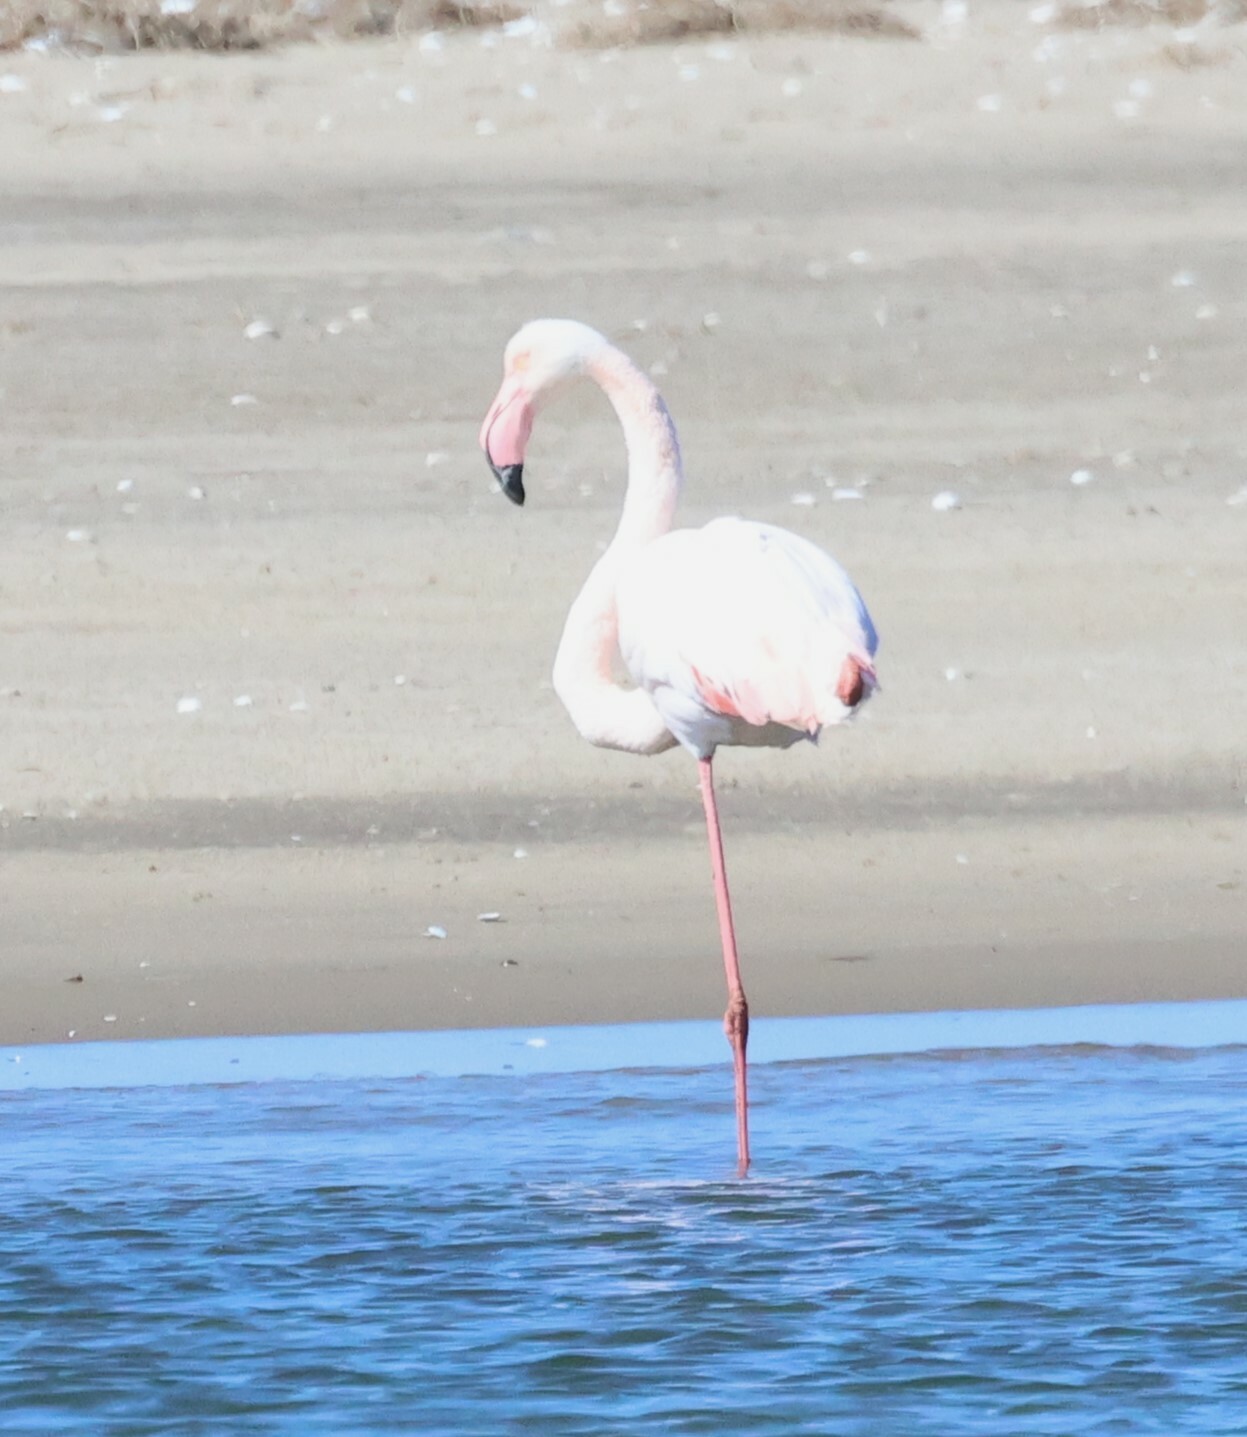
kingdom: Animalia
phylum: Chordata
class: Aves
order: Phoenicopteriformes
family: Phoenicopteridae
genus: Phoenicopterus
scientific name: Phoenicopterus roseus
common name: Greater flamingo
